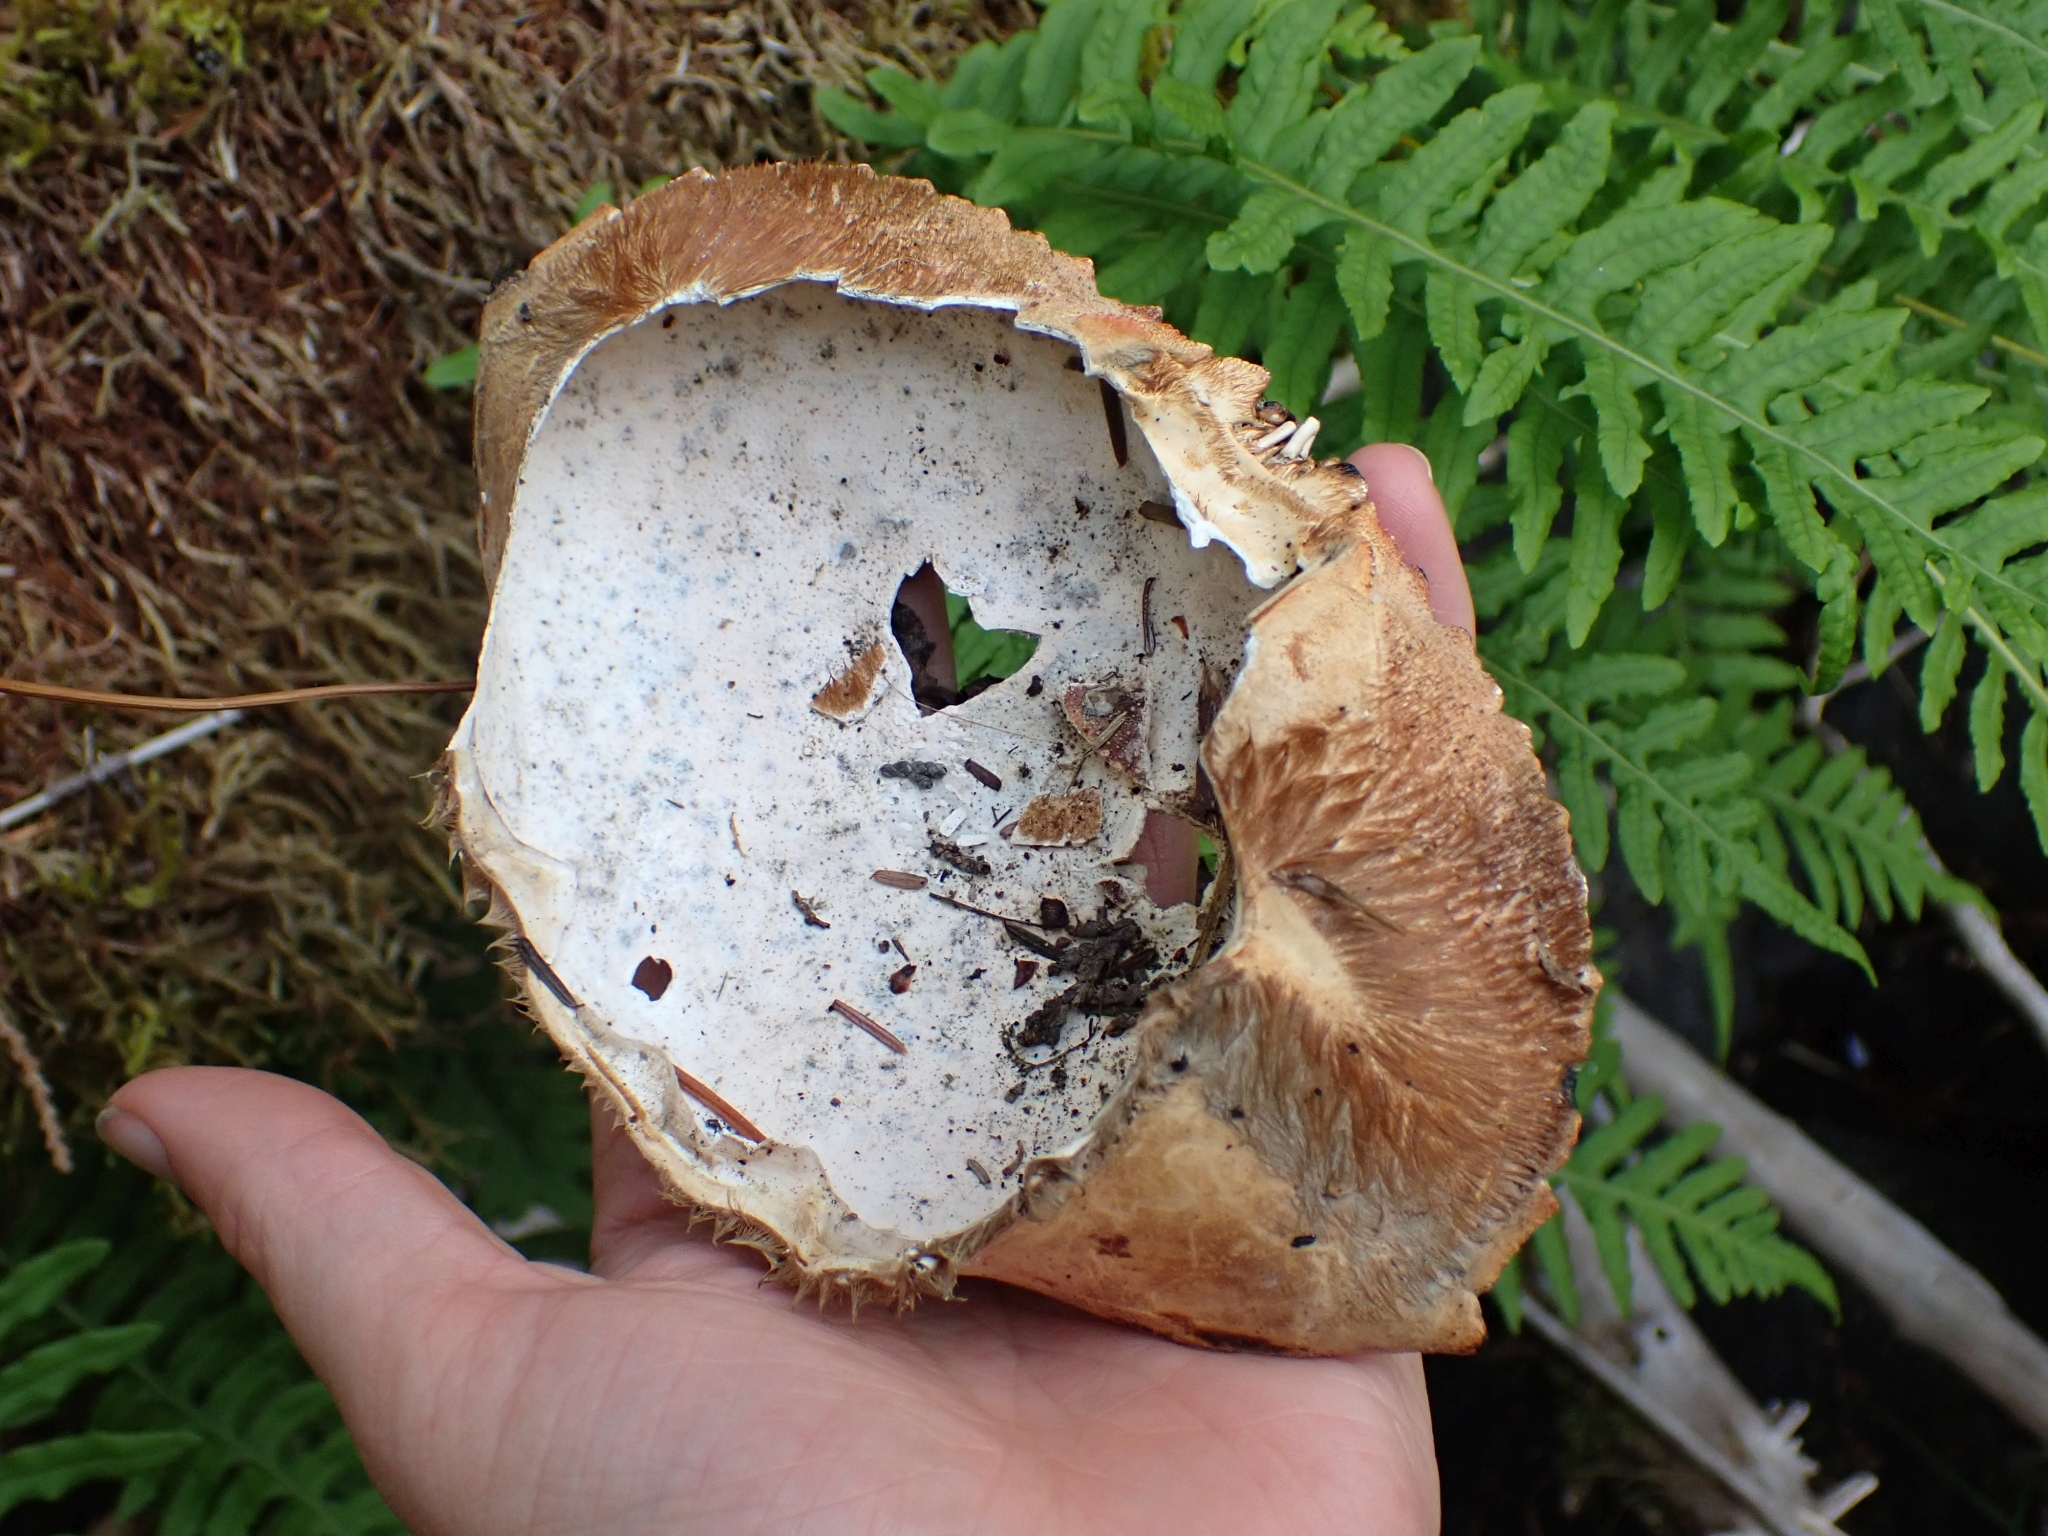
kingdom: Animalia
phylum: Arthropoda
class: Malacostraca
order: Decapoda
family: Cancridae
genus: Metacarcinus
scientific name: Metacarcinus magister
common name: Californian crab
